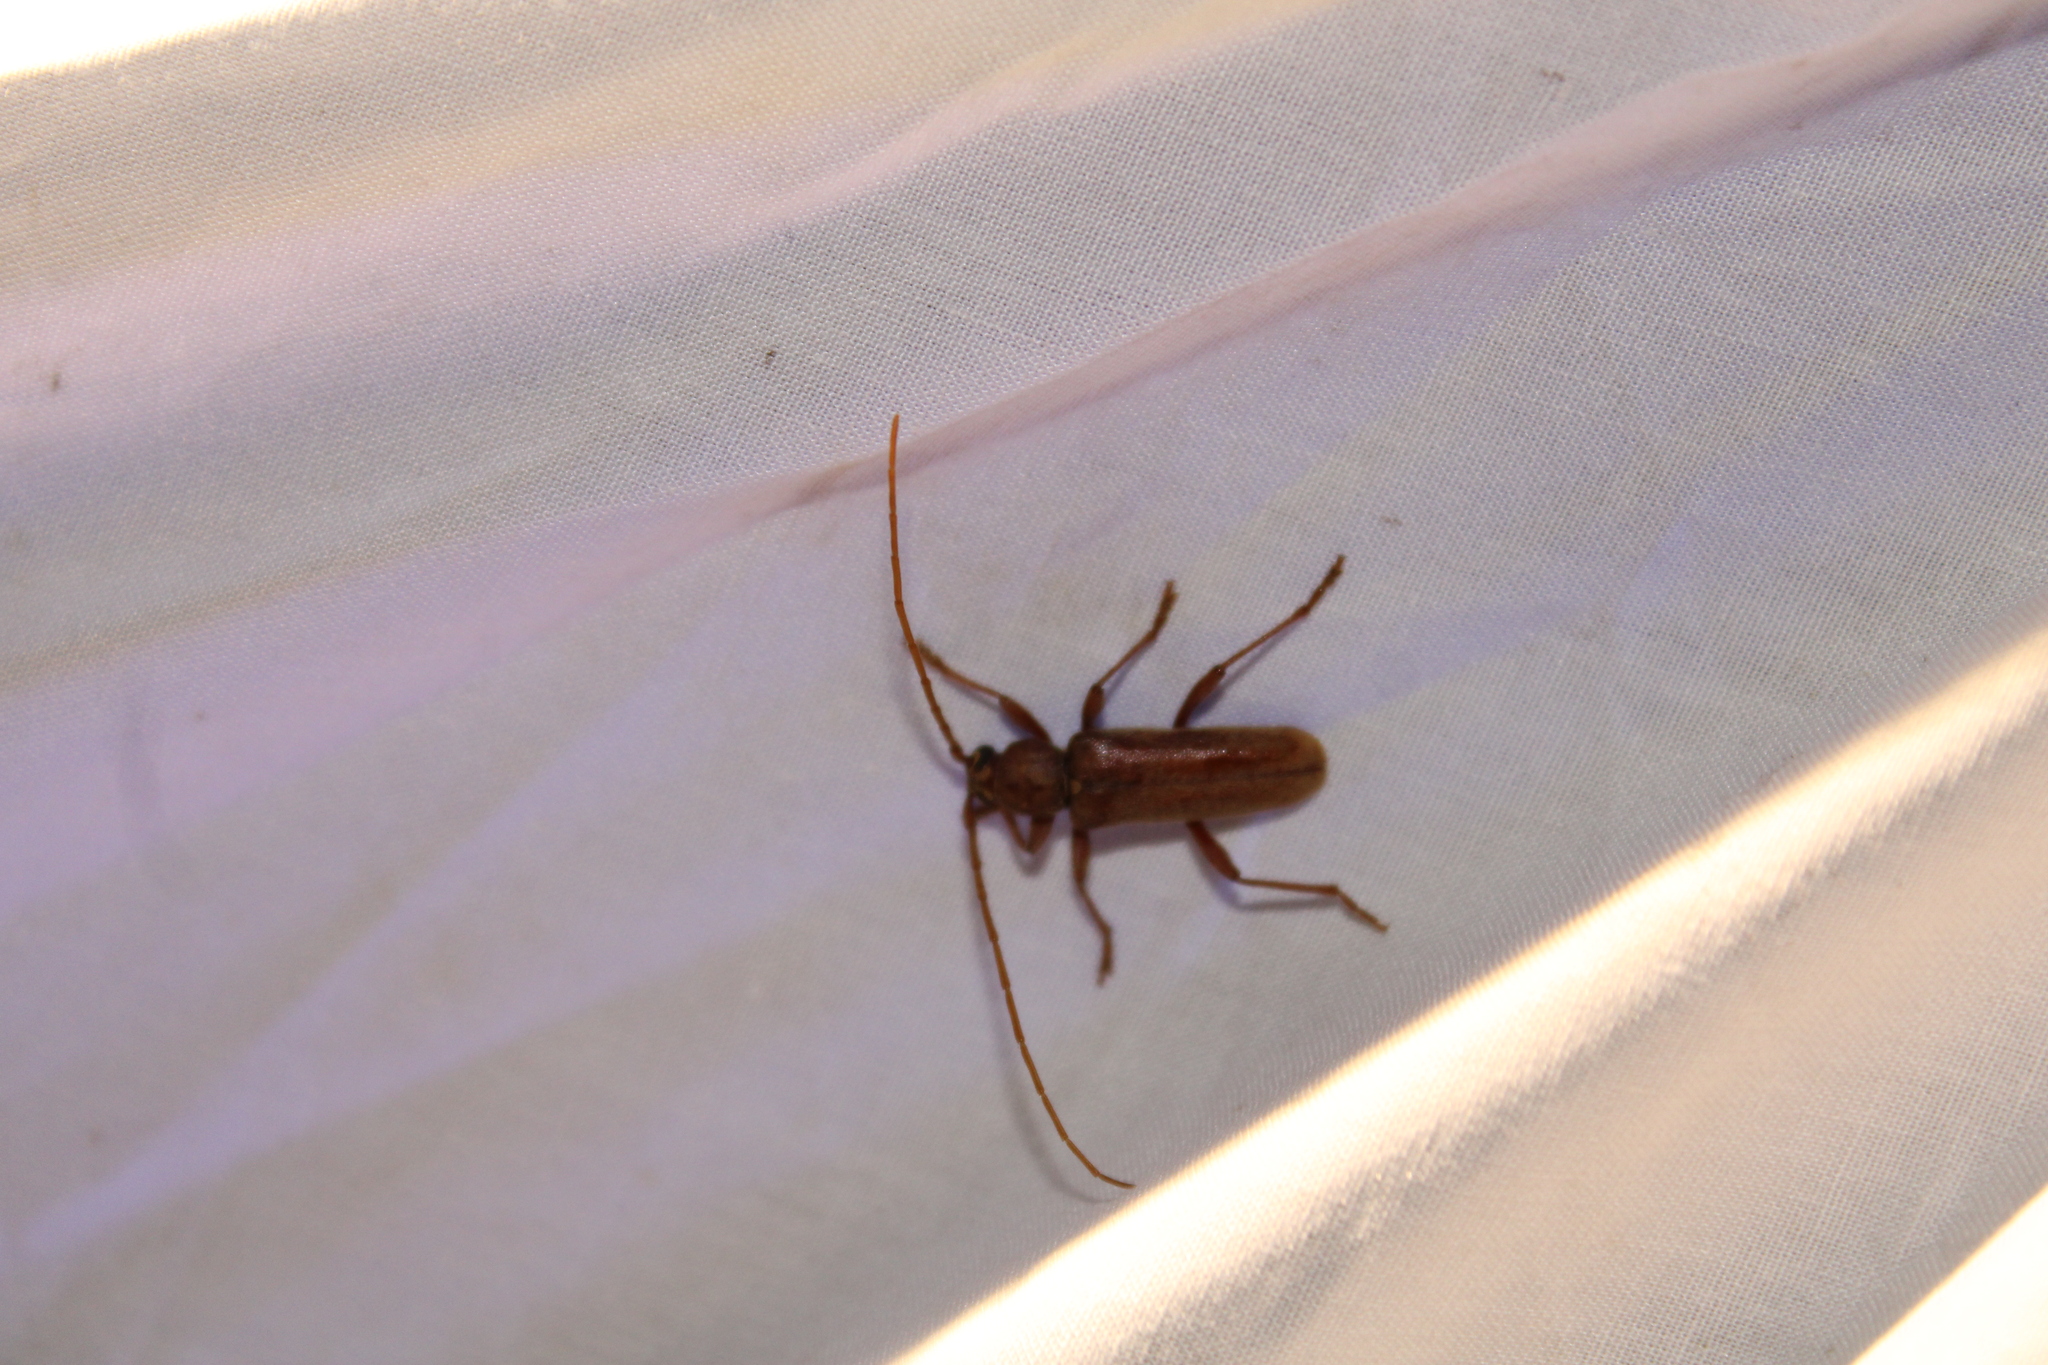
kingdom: Animalia
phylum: Arthropoda
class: Insecta
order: Coleoptera
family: Cerambycidae
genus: Hesperophanes
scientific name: Hesperophanes pubescens
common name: Longhorned wood-boring beetle
